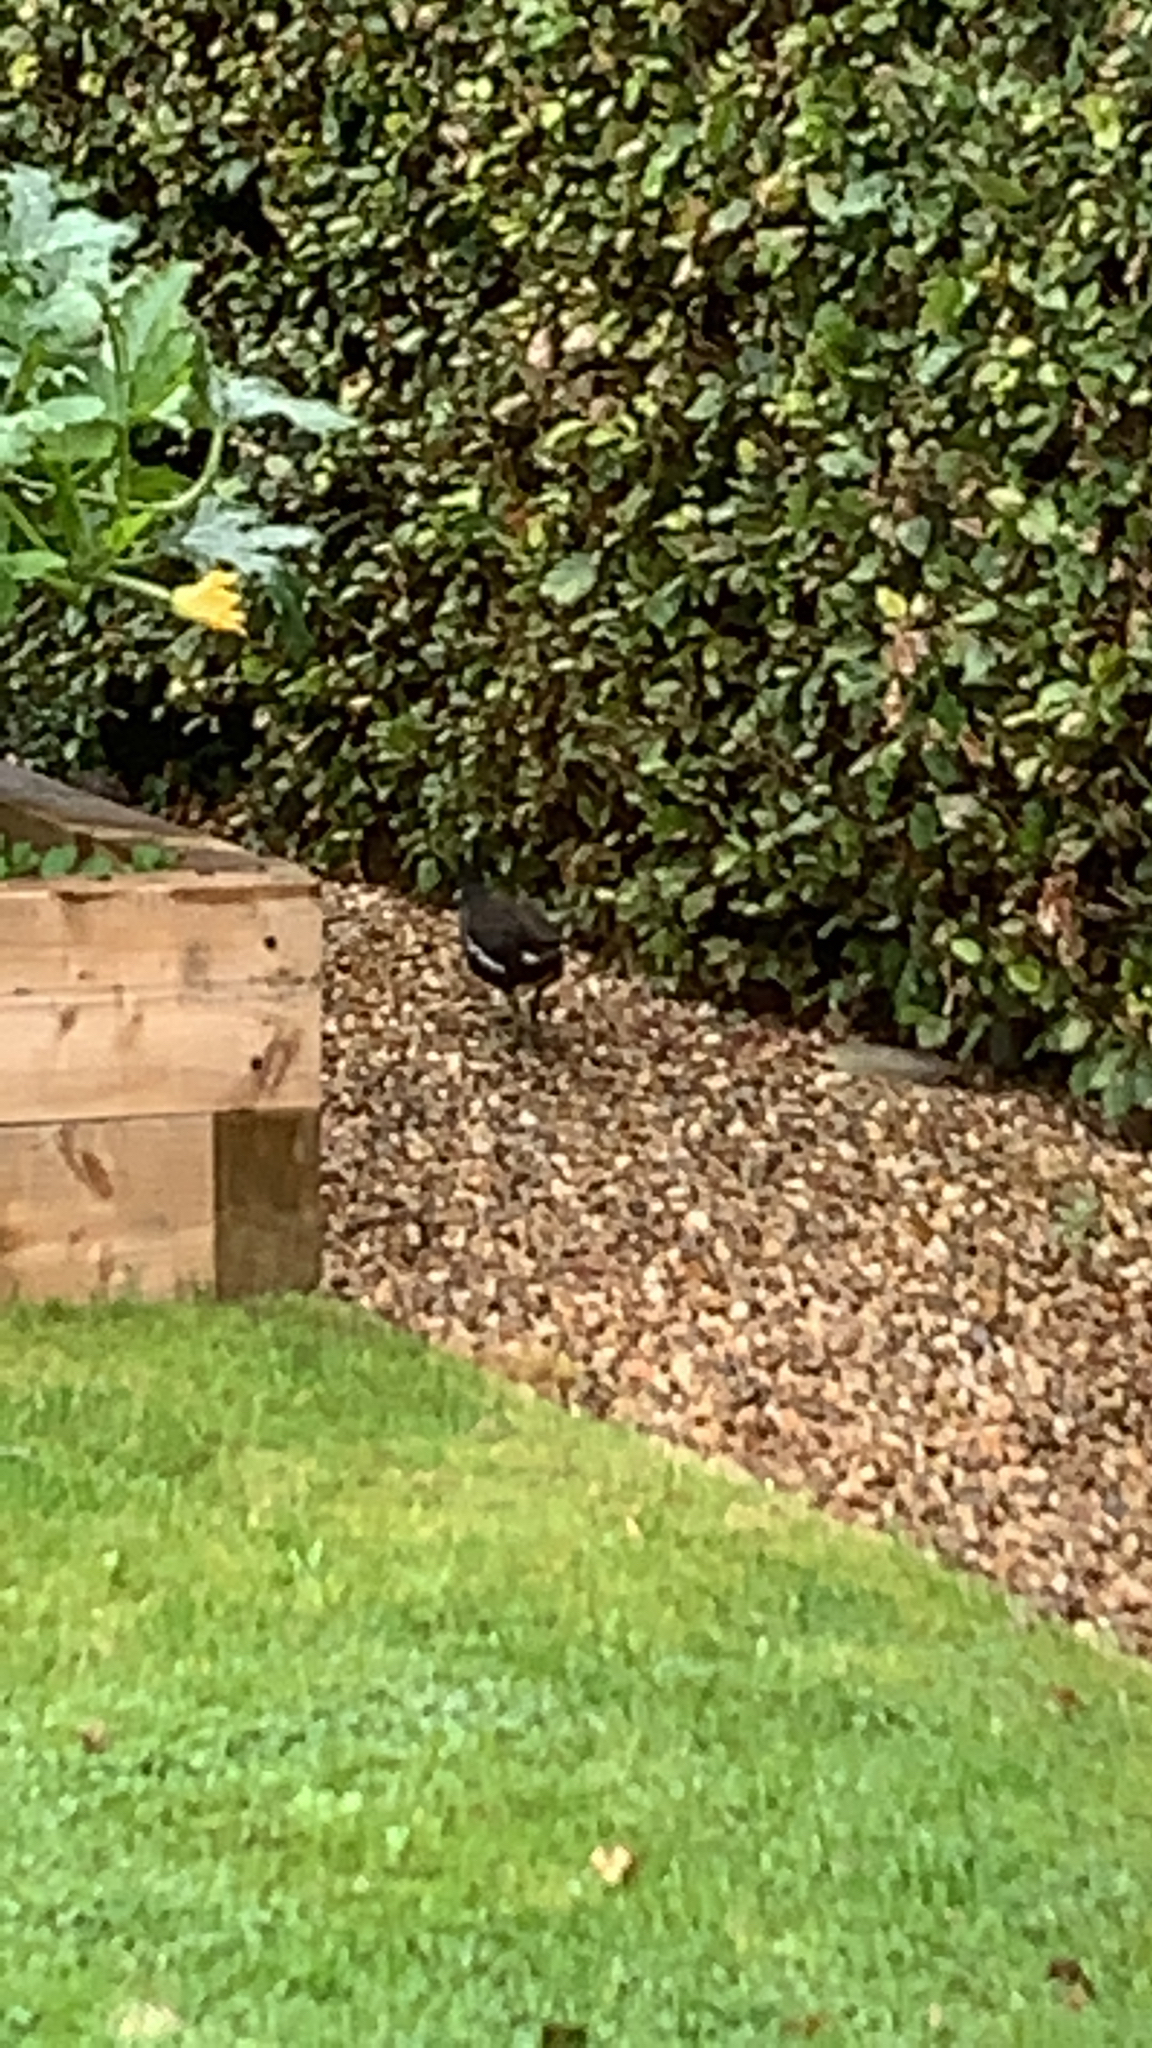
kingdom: Animalia
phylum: Chordata
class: Aves
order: Gruiformes
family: Rallidae
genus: Gallinula
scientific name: Gallinula chloropus
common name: Common moorhen
